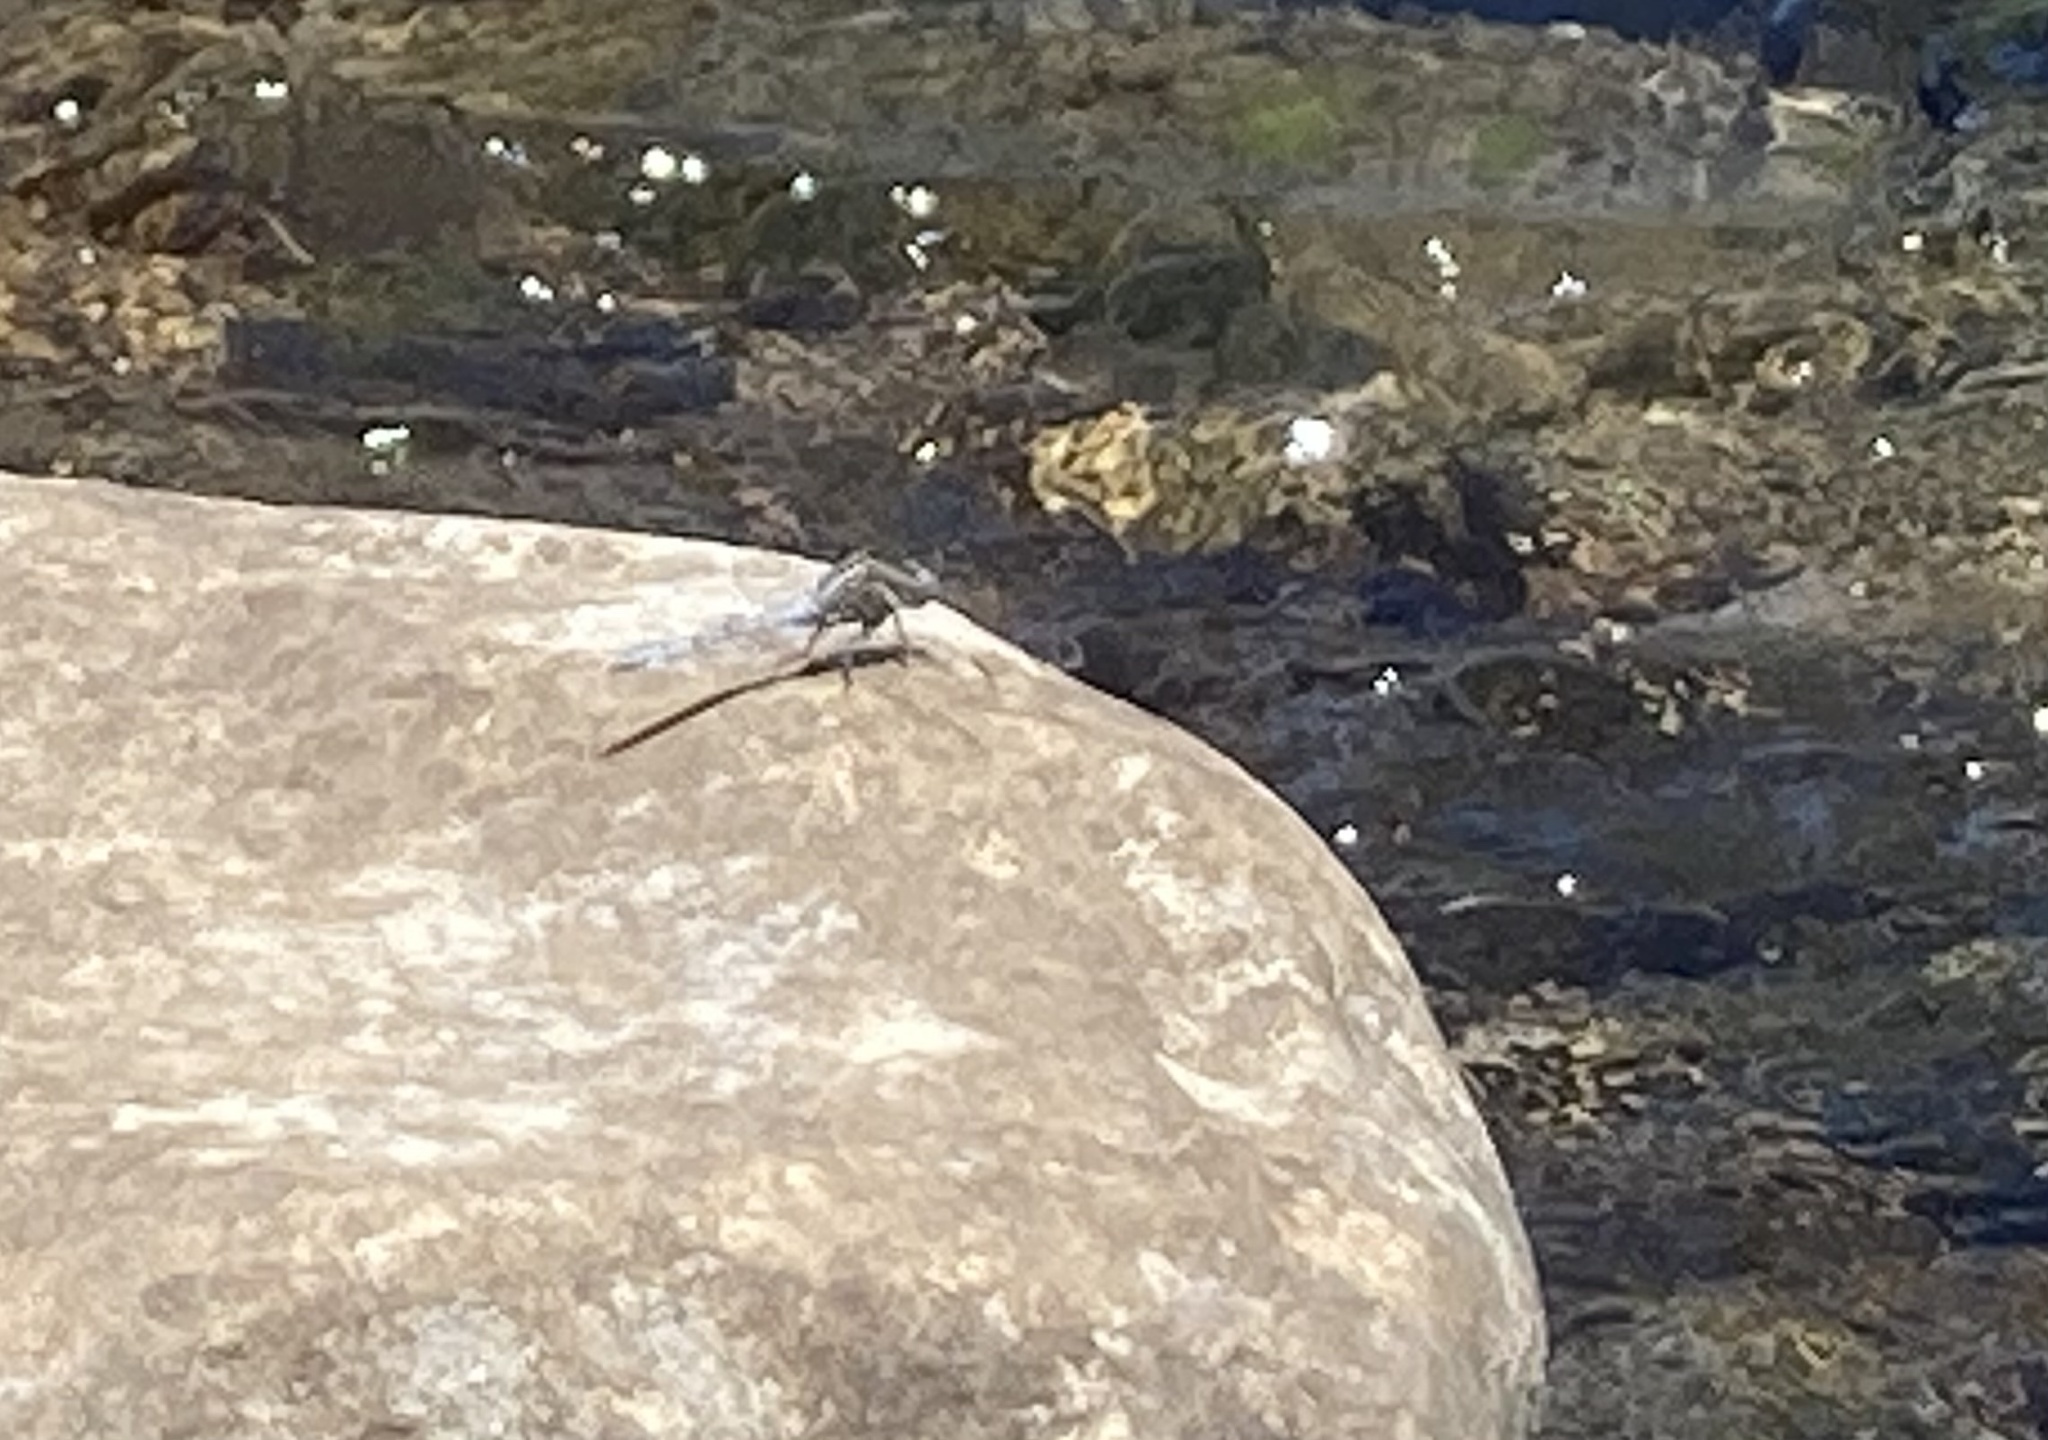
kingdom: Animalia
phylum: Arthropoda
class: Insecta
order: Odonata
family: Libellulidae
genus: Orthetrum
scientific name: Orthetrum chrysostigma
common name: Epaulet skimmer
